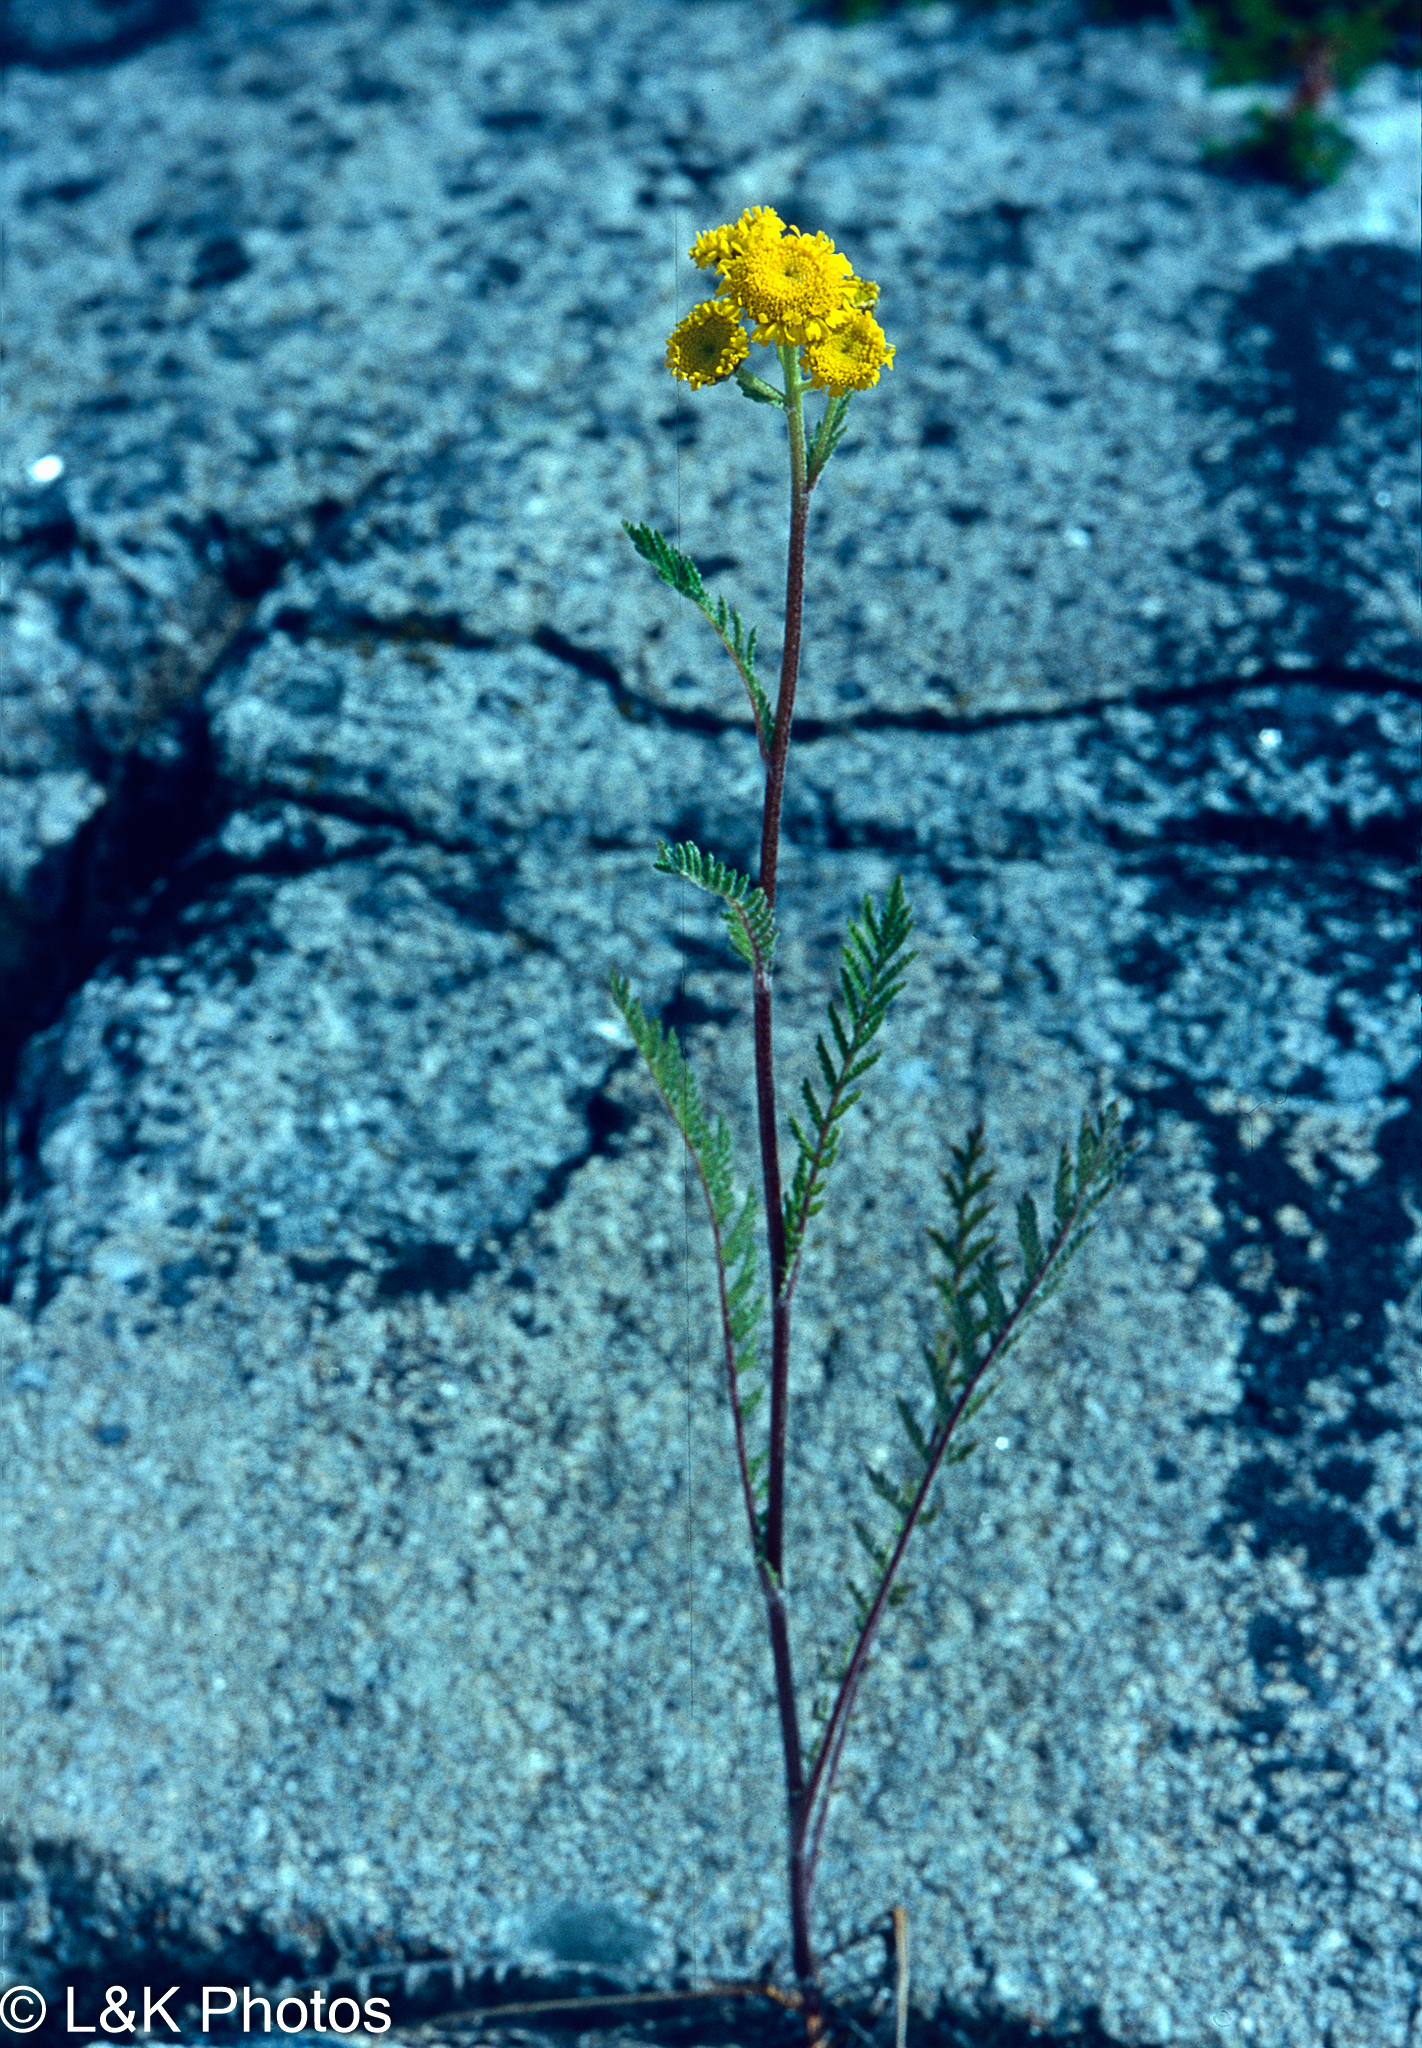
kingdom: Plantae
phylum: Tracheophyta
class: Magnoliopsida
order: Asterales
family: Asteraceae
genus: Tanacetum
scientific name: Tanacetum bipinnatum
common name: Dwarf tansy
